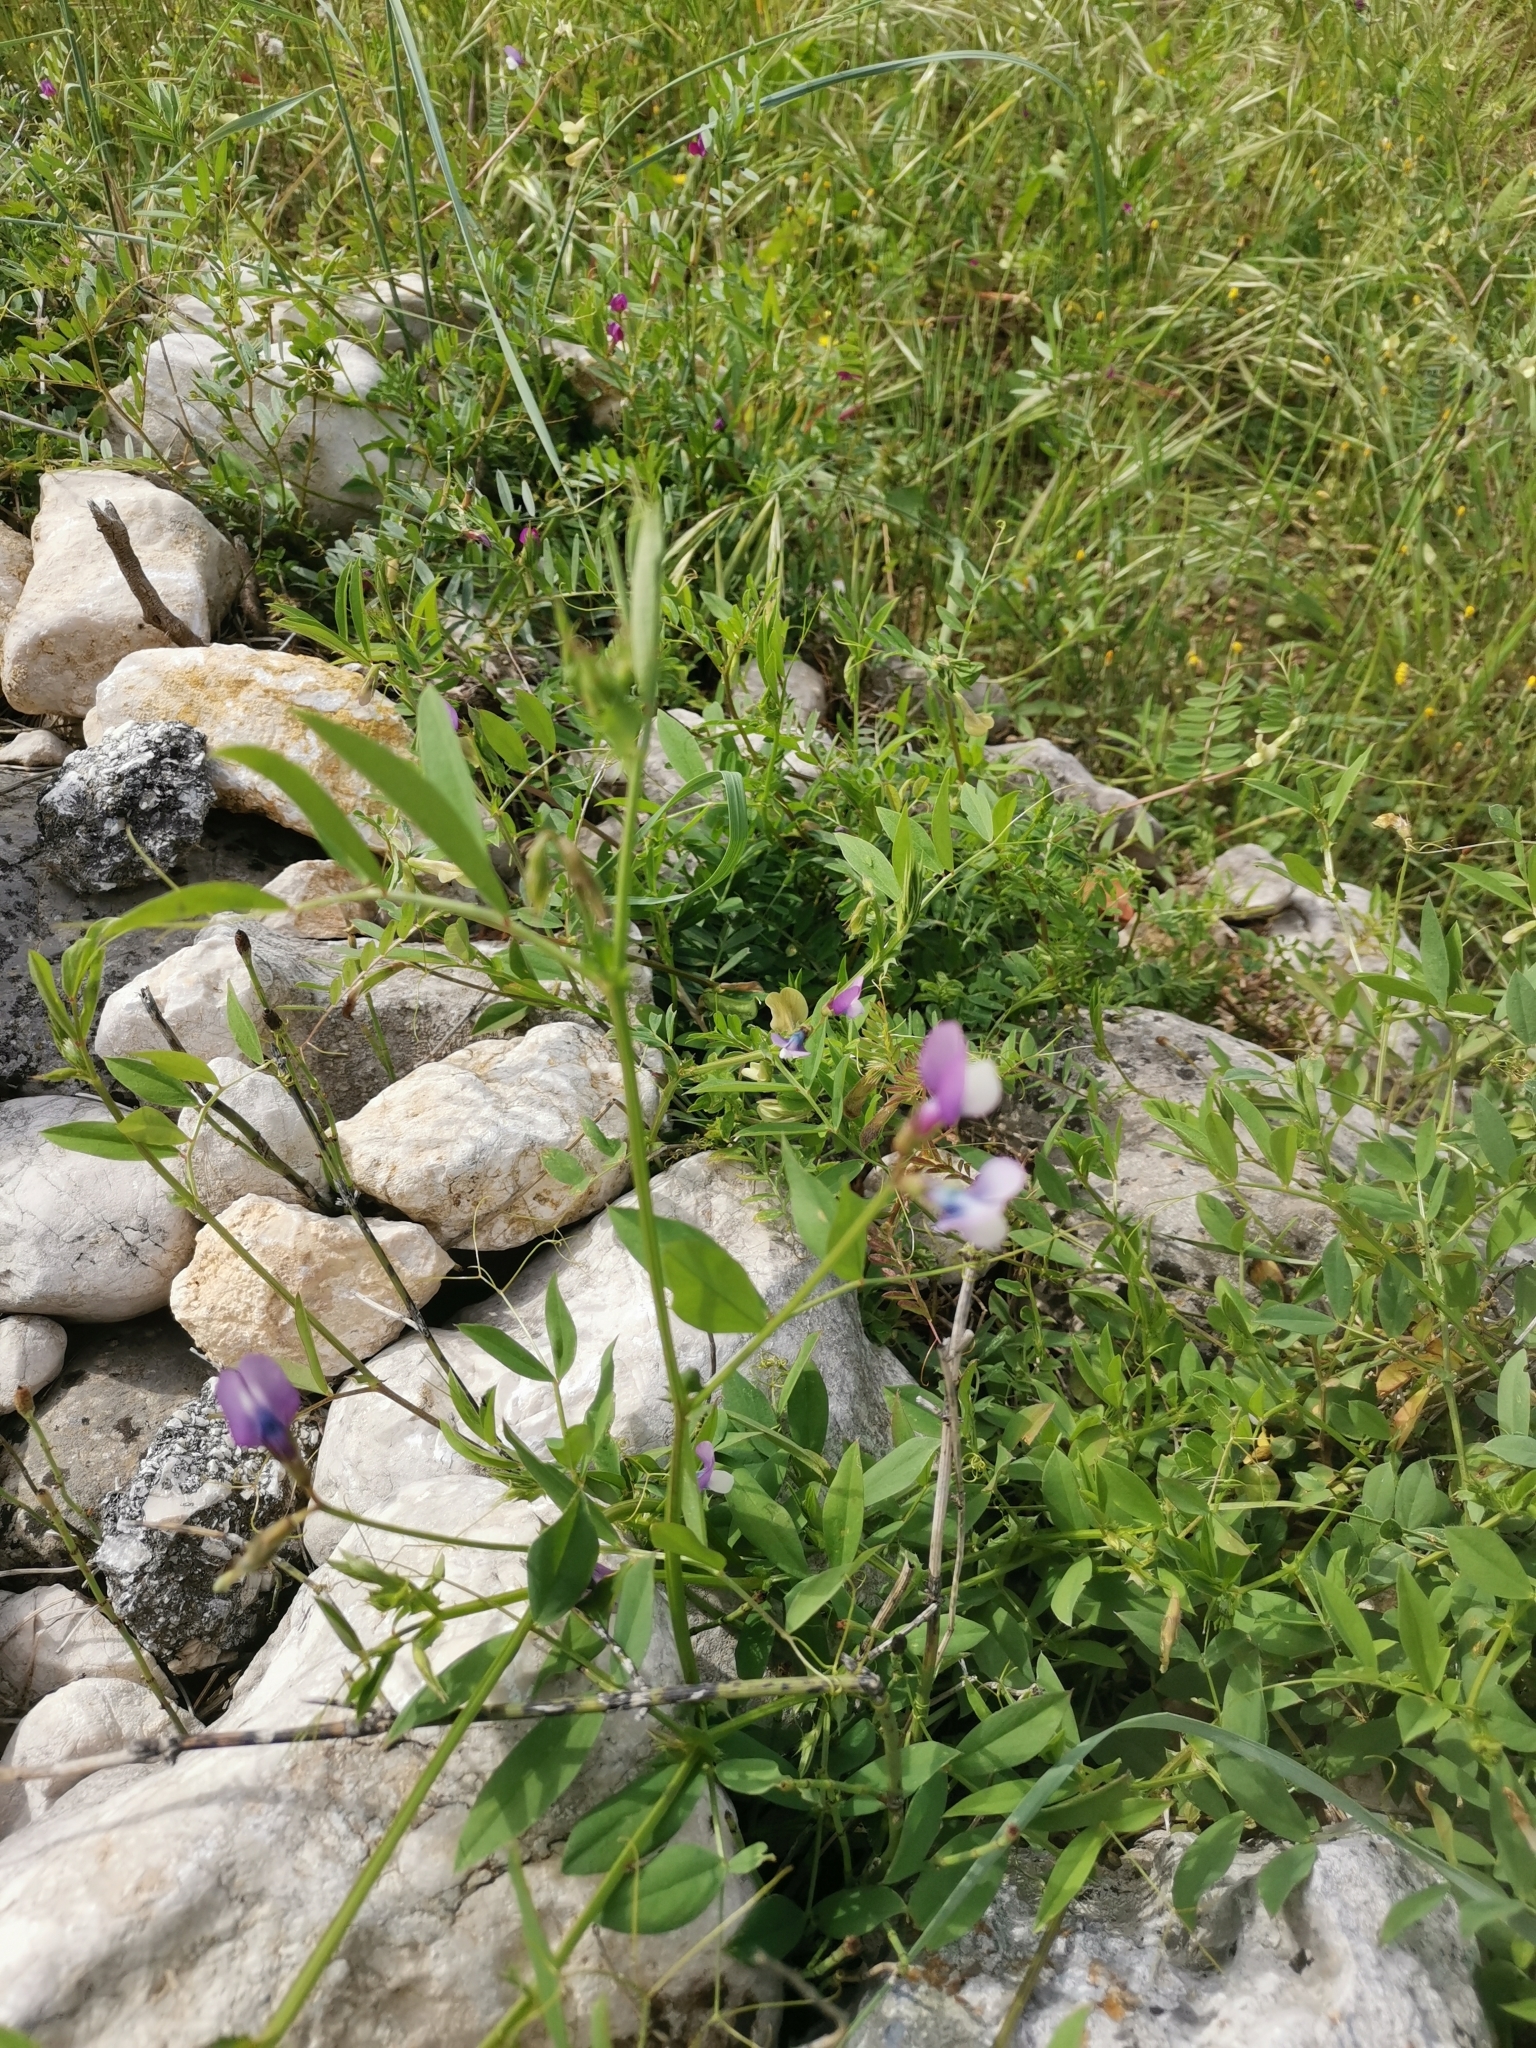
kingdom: Plantae
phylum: Tracheophyta
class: Magnoliopsida
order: Fabales
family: Fabaceae
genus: Vicia
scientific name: Vicia bithynica
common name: Bithynian vetch
